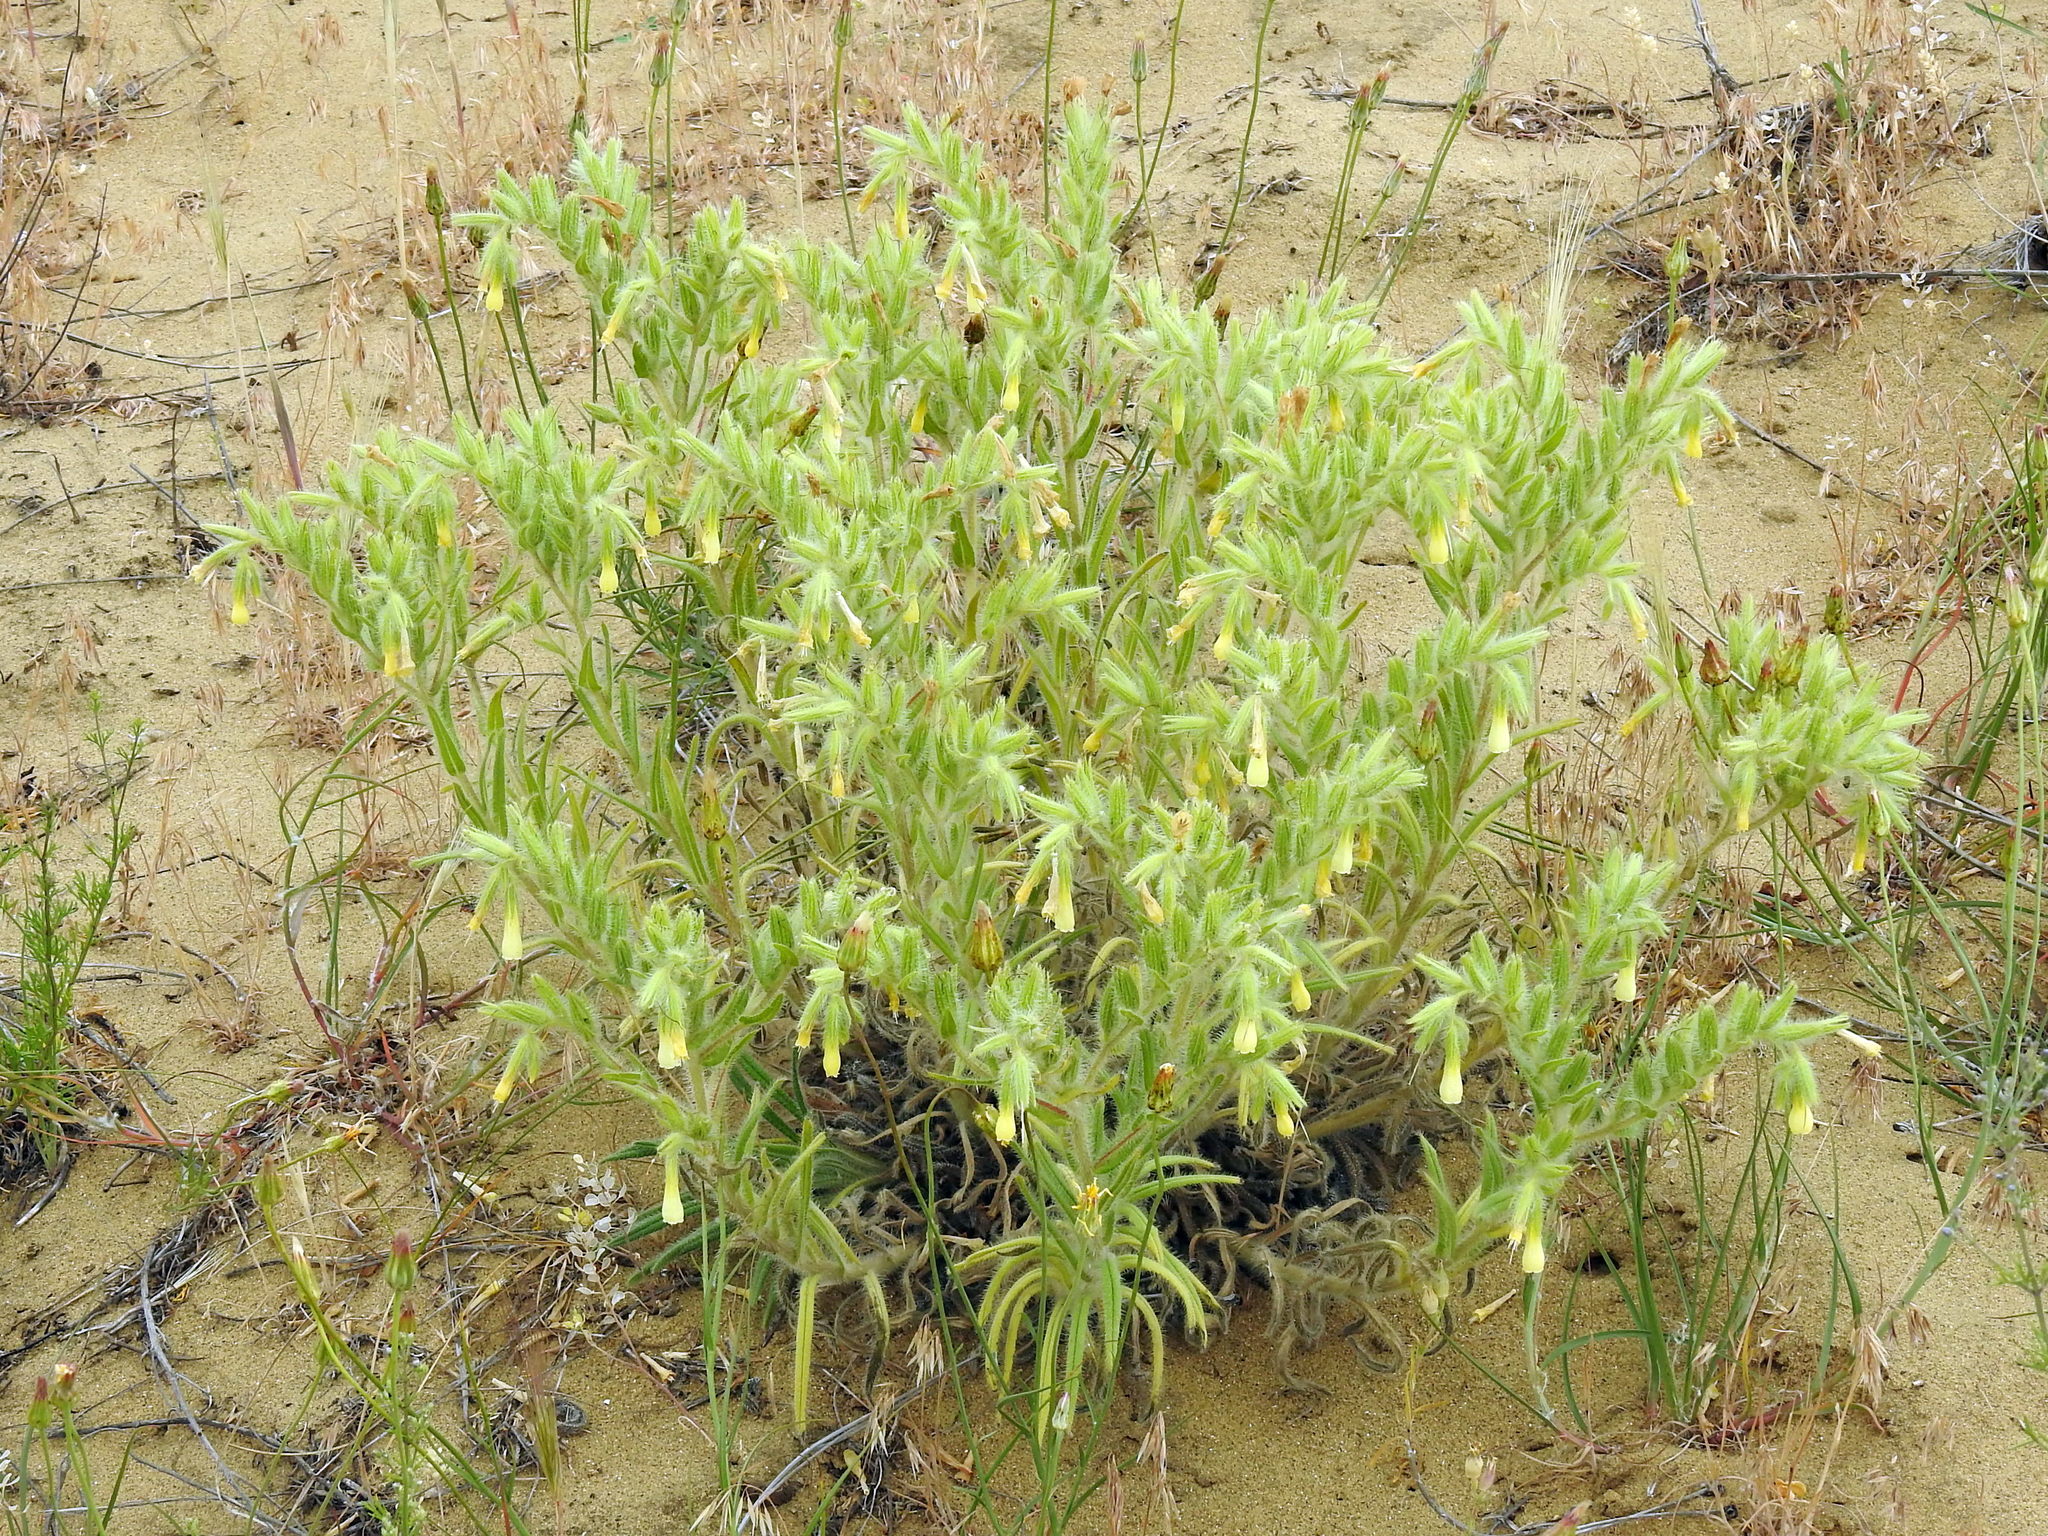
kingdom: Plantae
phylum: Tracheophyta
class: Magnoliopsida
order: Boraginales
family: Boraginaceae
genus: Onosma
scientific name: Onosma setosa
